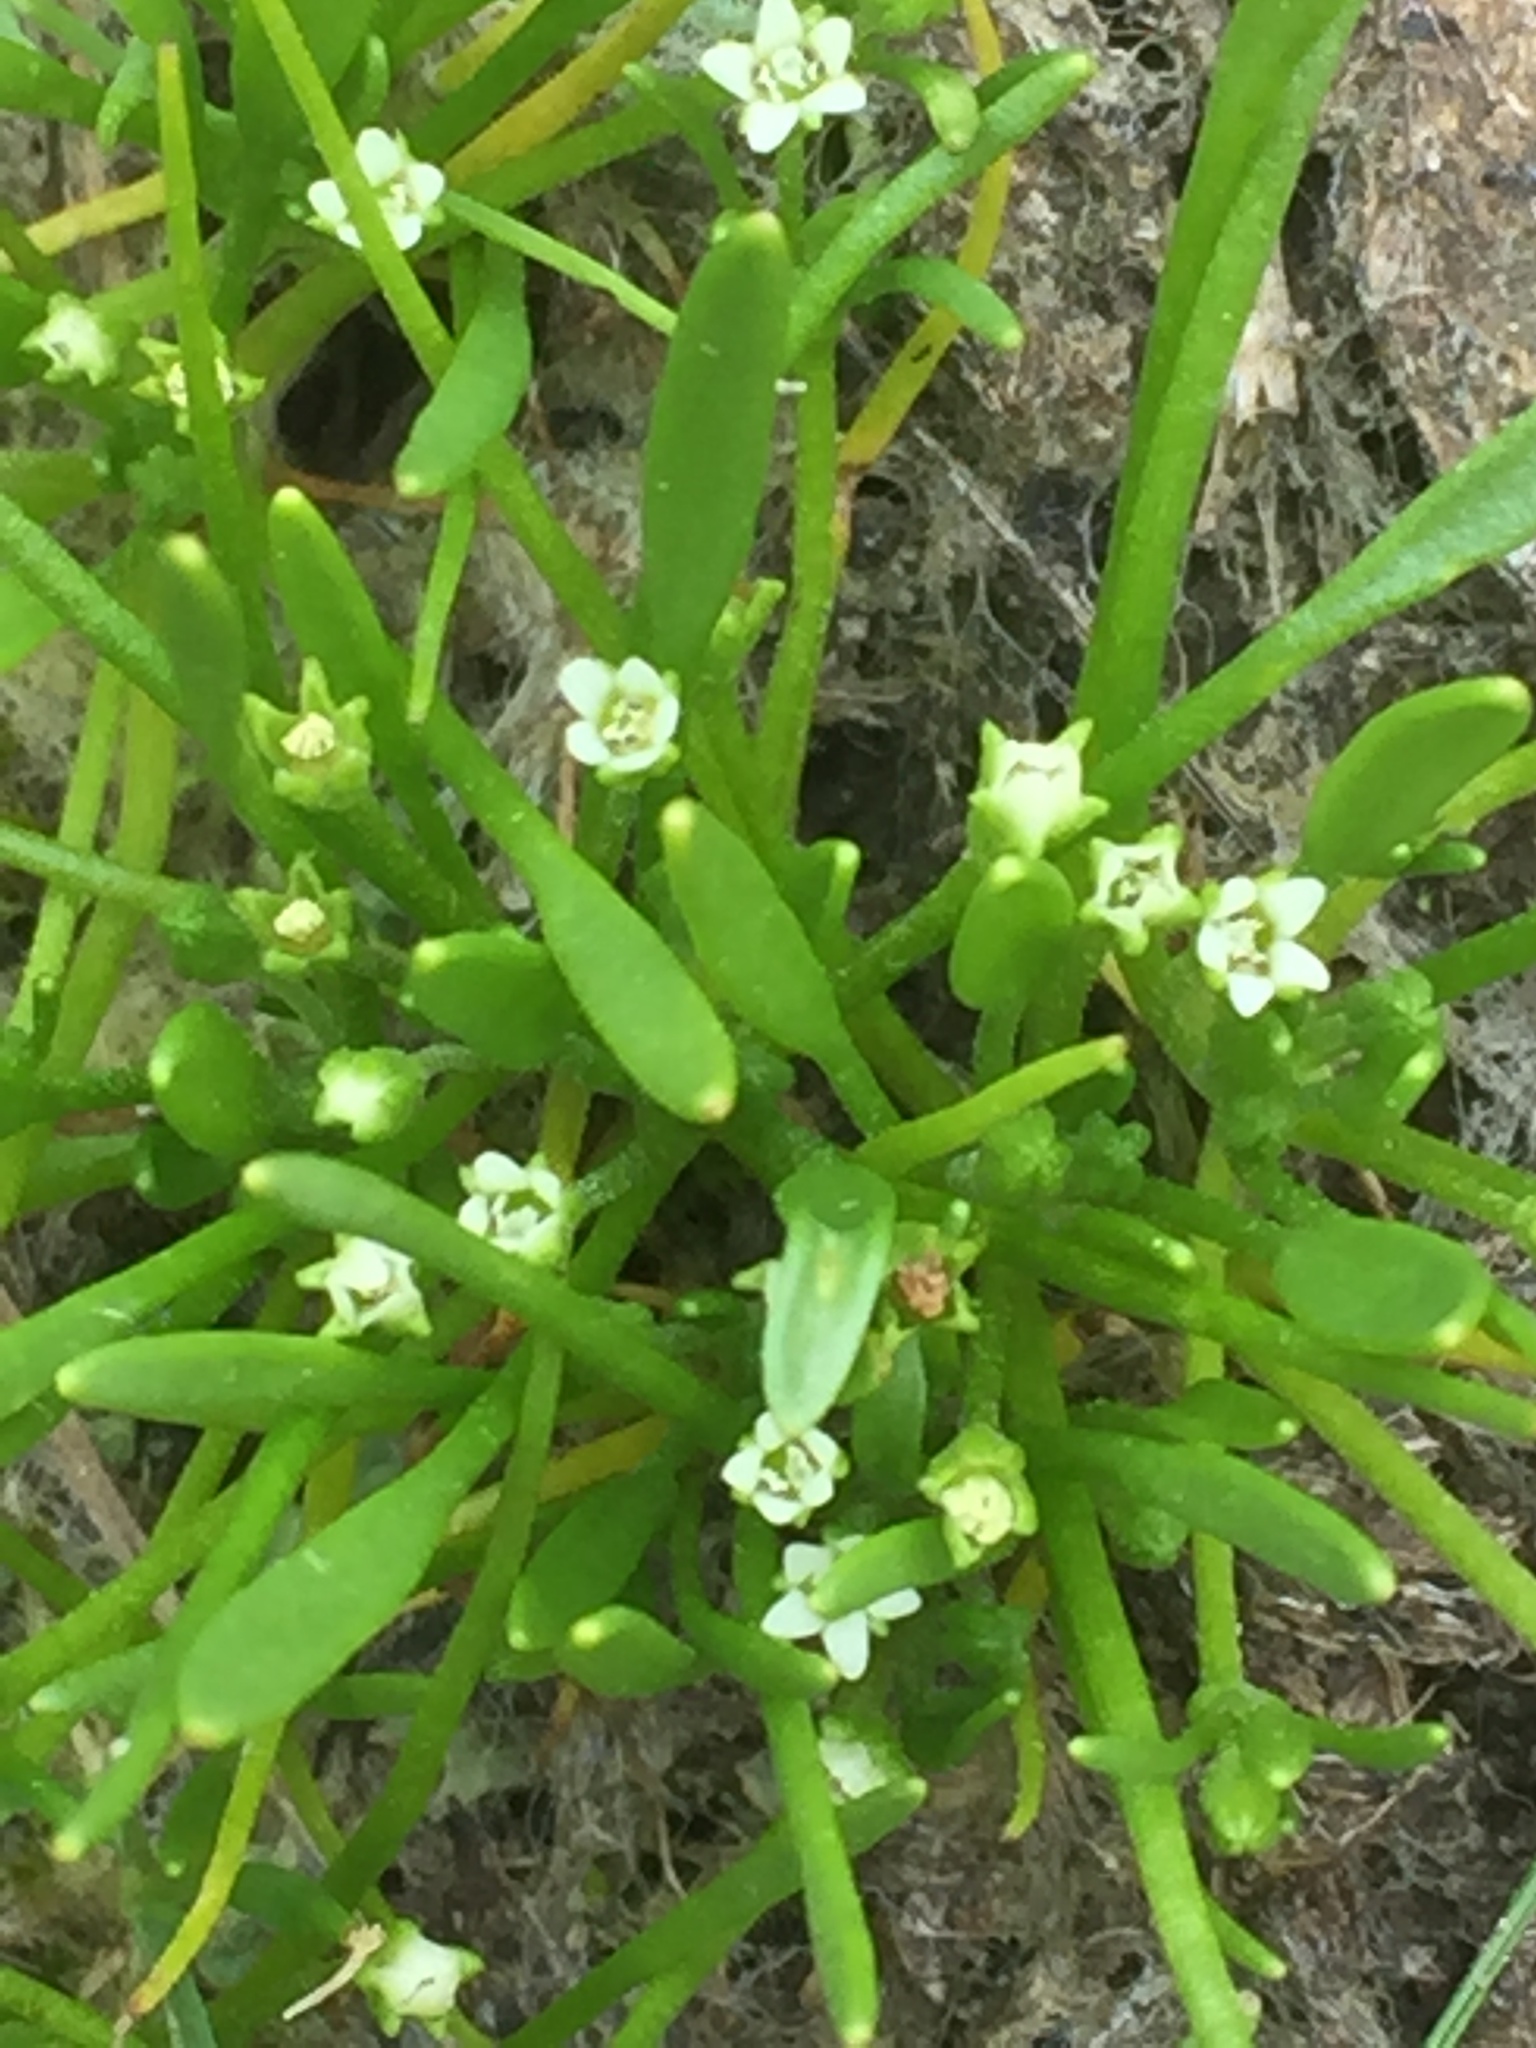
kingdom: Plantae
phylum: Tracheophyta
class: Magnoliopsida
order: Lamiales
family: Scrophulariaceae
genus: Limosella
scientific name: Limosella aquatica
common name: Mudwort
